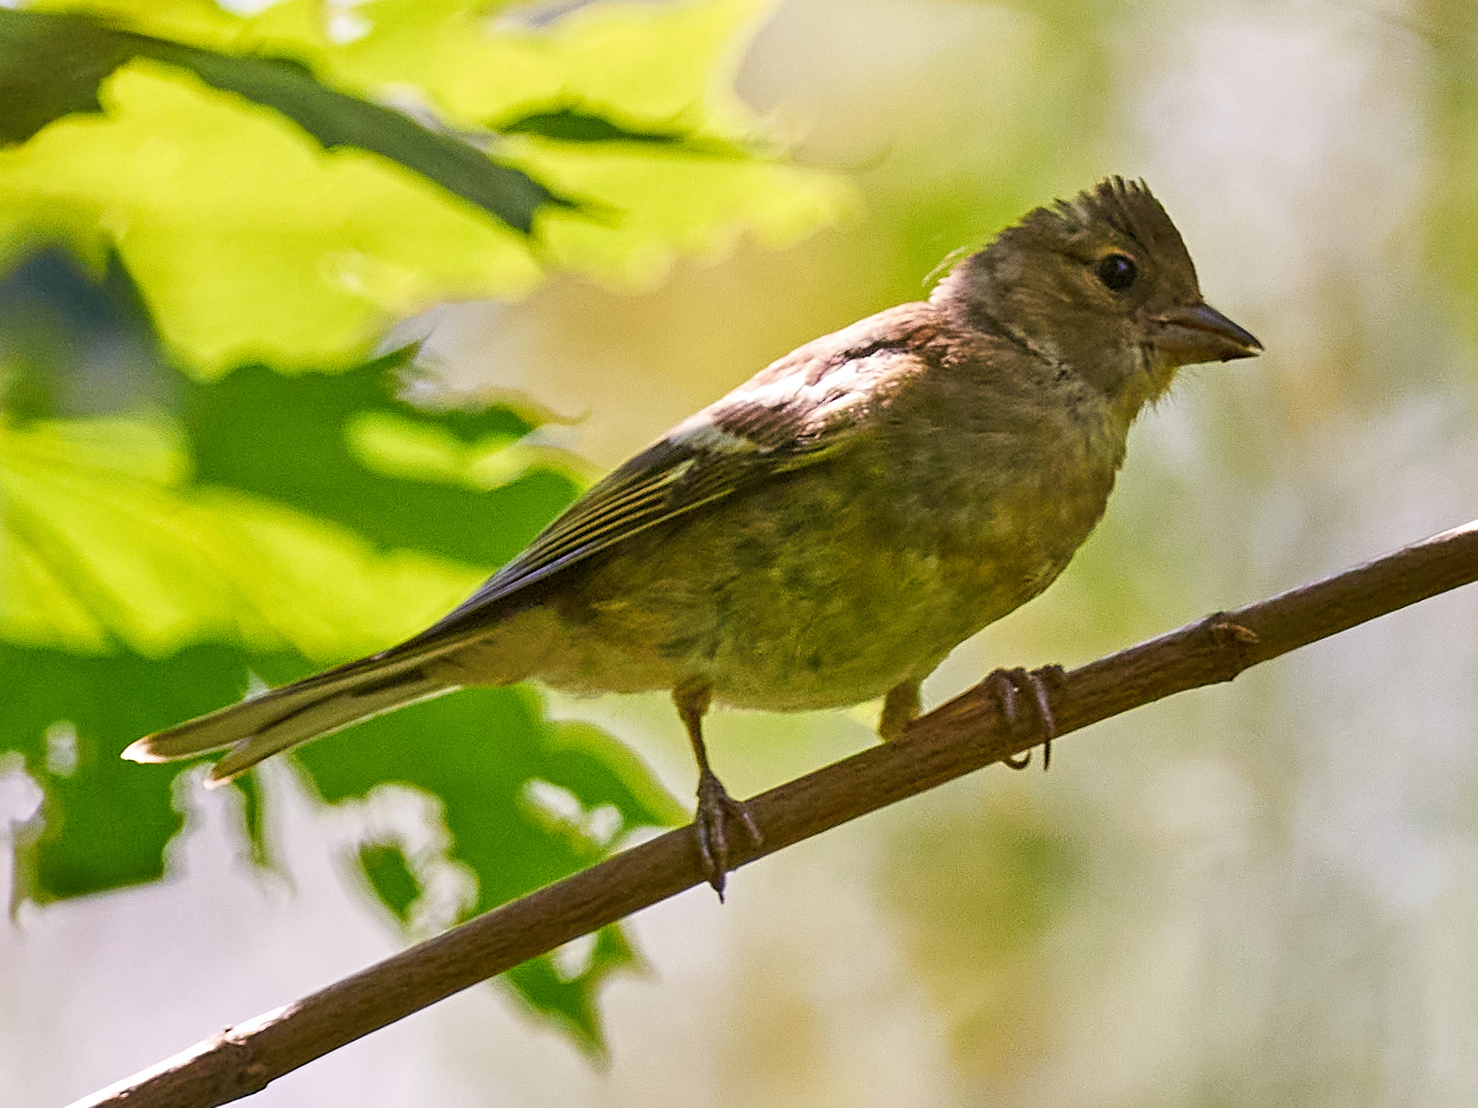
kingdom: Animalia
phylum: Chordata
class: Aves
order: Passeriformes
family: Fringillidae
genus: Fringilla
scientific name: Fringilla coelebs
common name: Common chaffinch
